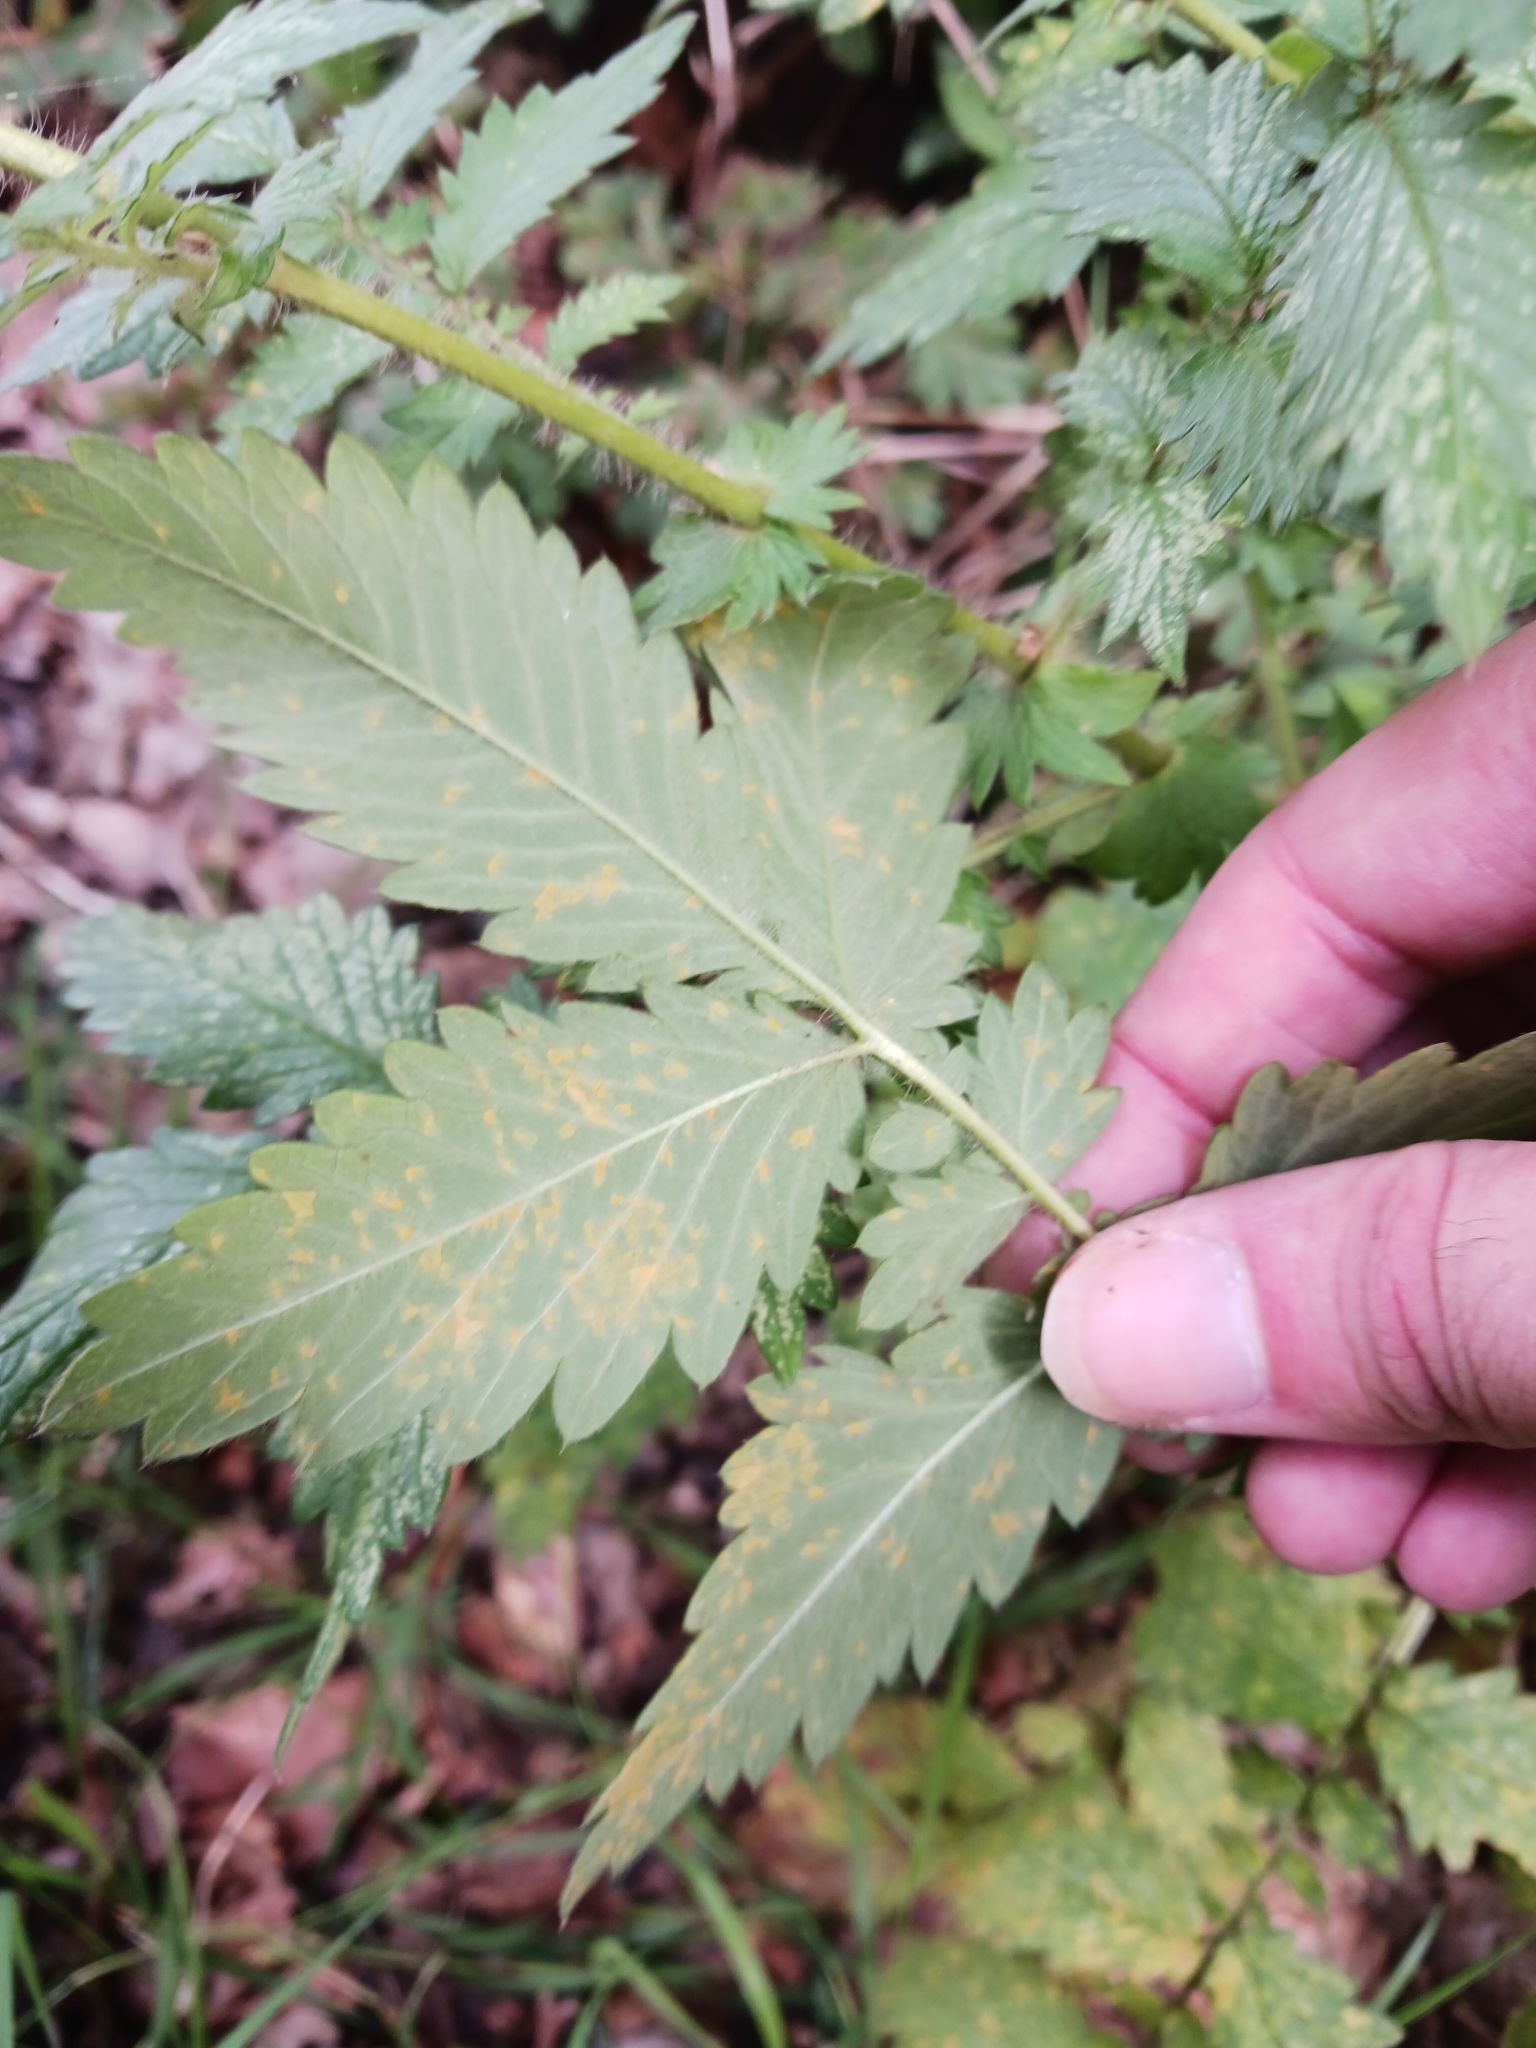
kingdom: Fungi
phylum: Basidiomycota
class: Pucciniomycetes
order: Pucciniales
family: Cronartiaceae
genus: Quasipucciniastrum
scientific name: Quasipucciniastrum ochraceum
